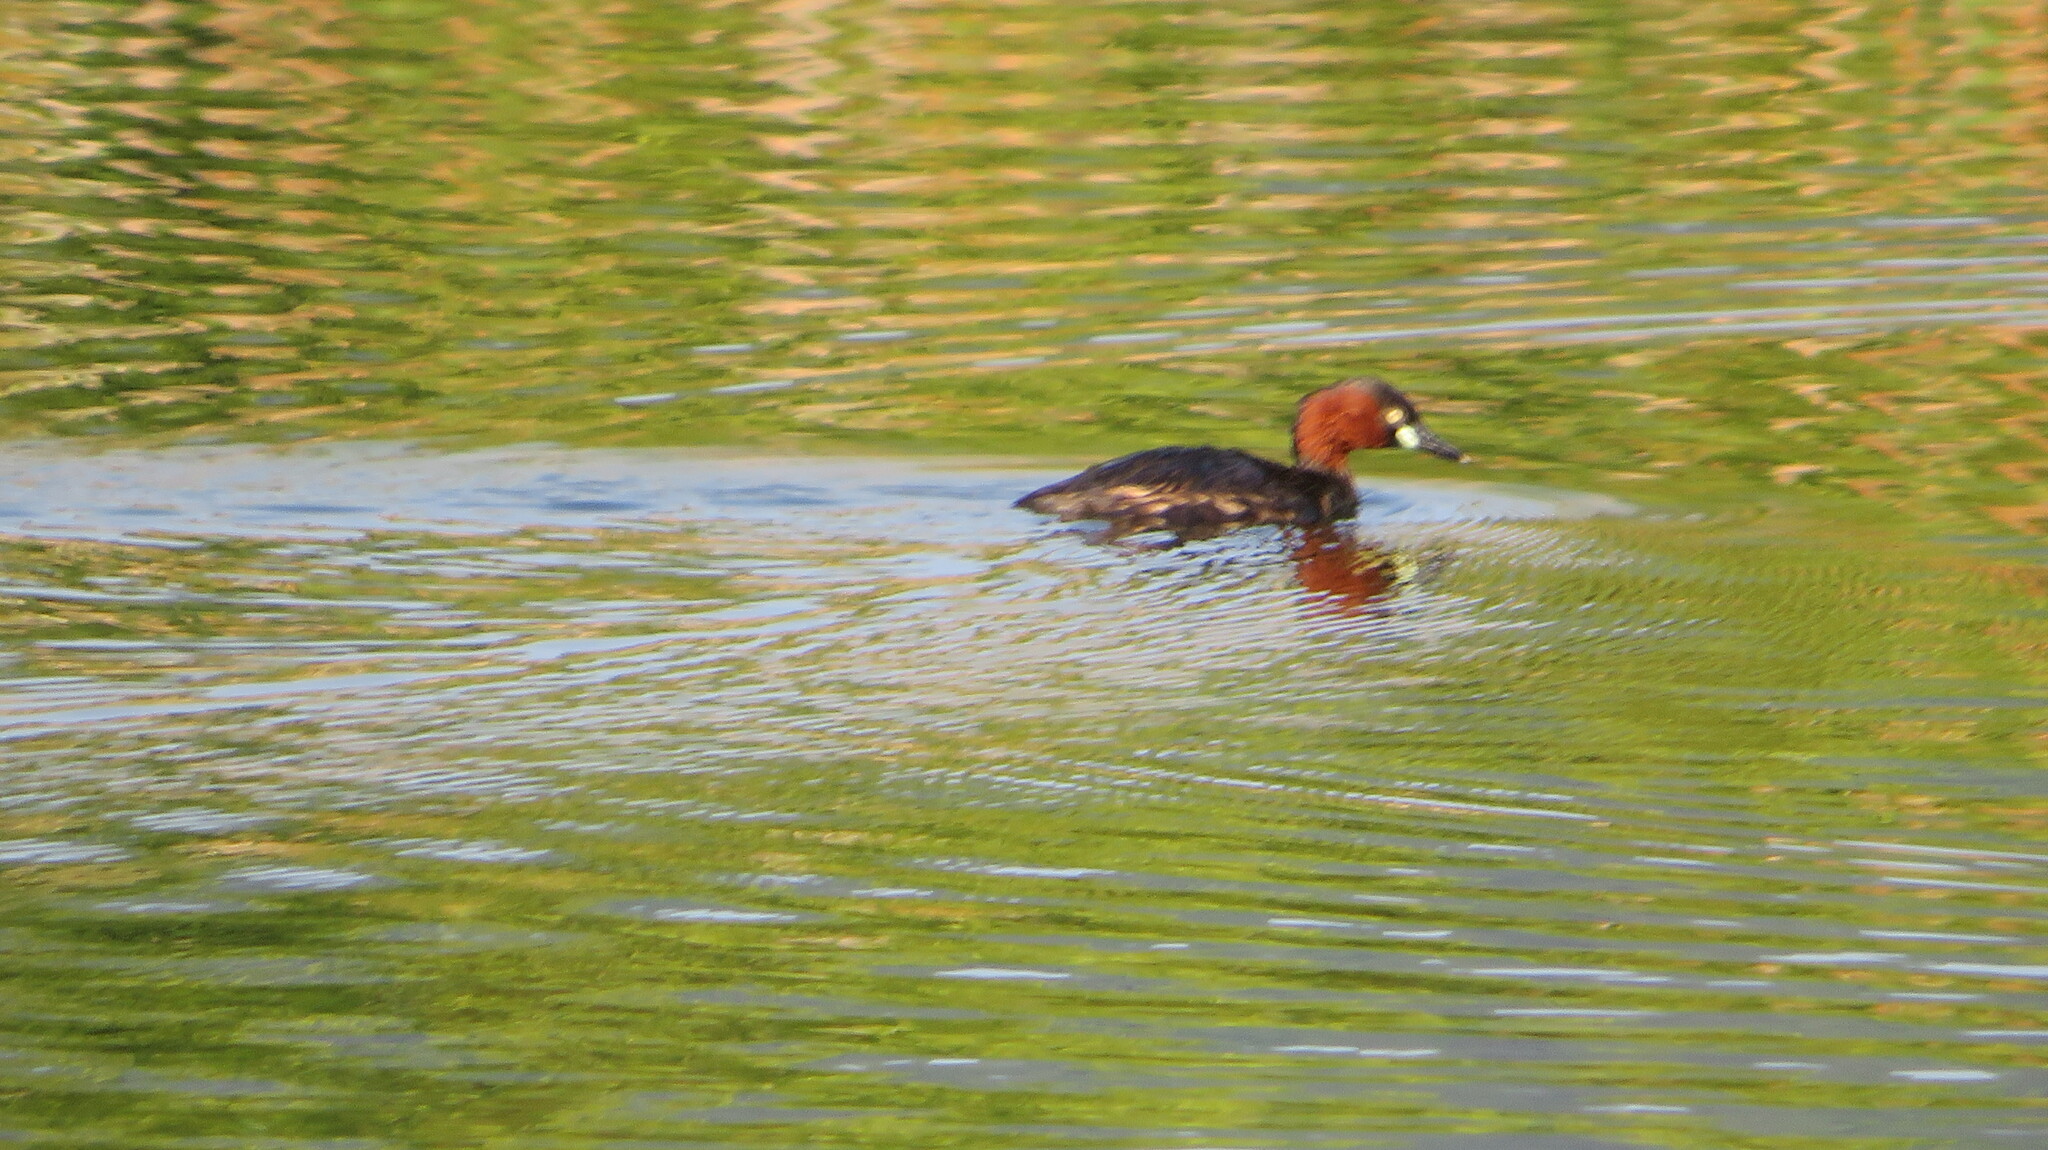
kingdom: Animalia
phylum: Chordata
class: Aves
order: Podicipediformes
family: Podicipedidae
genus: Tachybaptus
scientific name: Tachybaptus ruficollis
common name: Little grebe
